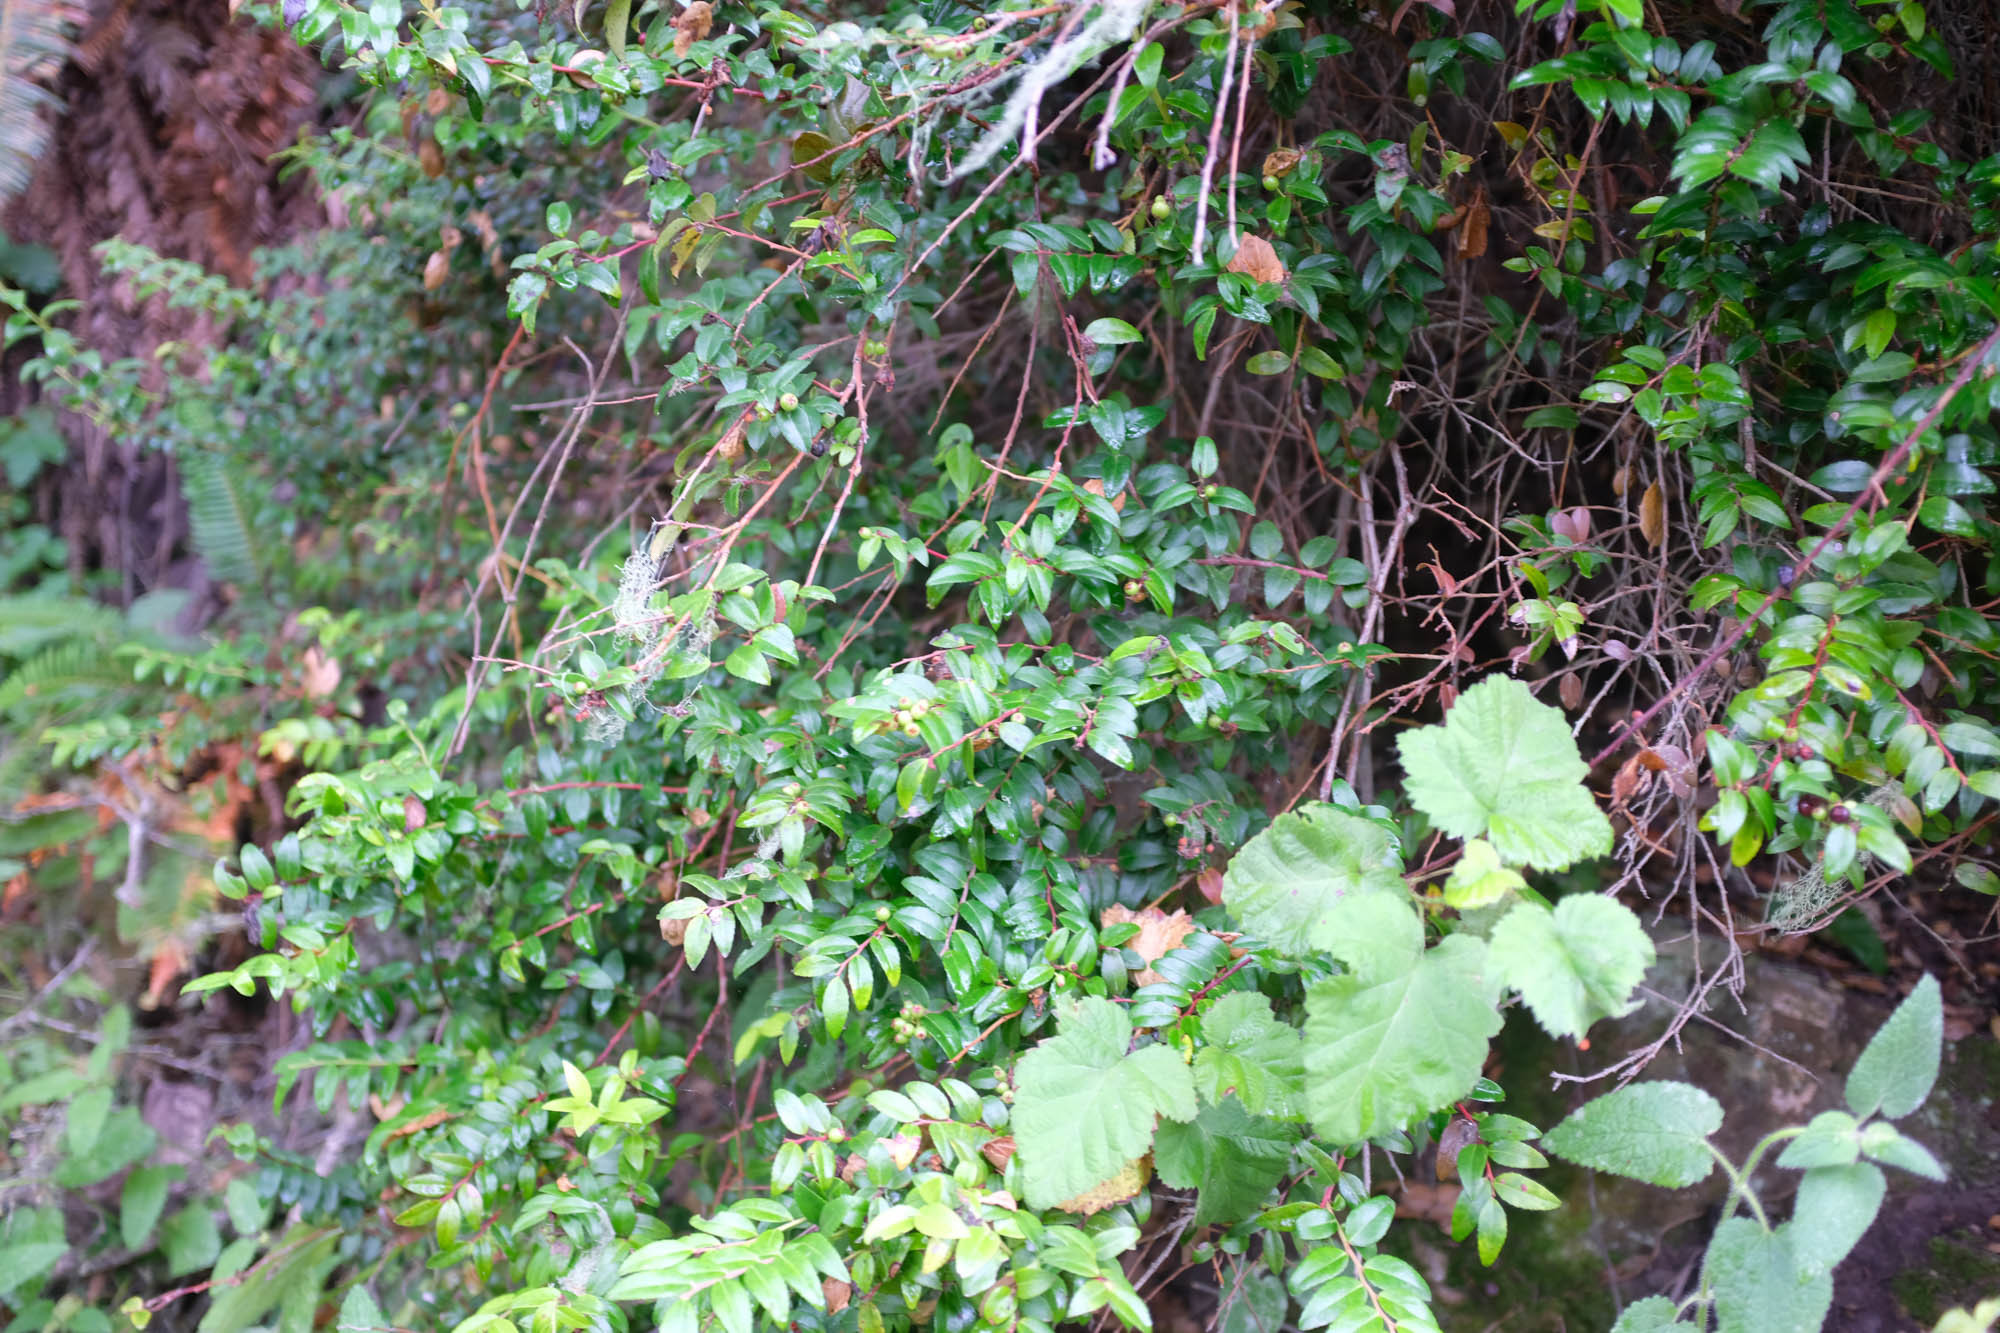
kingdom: Plantae
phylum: Tracheophyta
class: Magnoliopsida
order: Ericales
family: Ericaceae
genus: Vaccinium
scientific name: Vaccinium ovatum
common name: California-huckleberry
